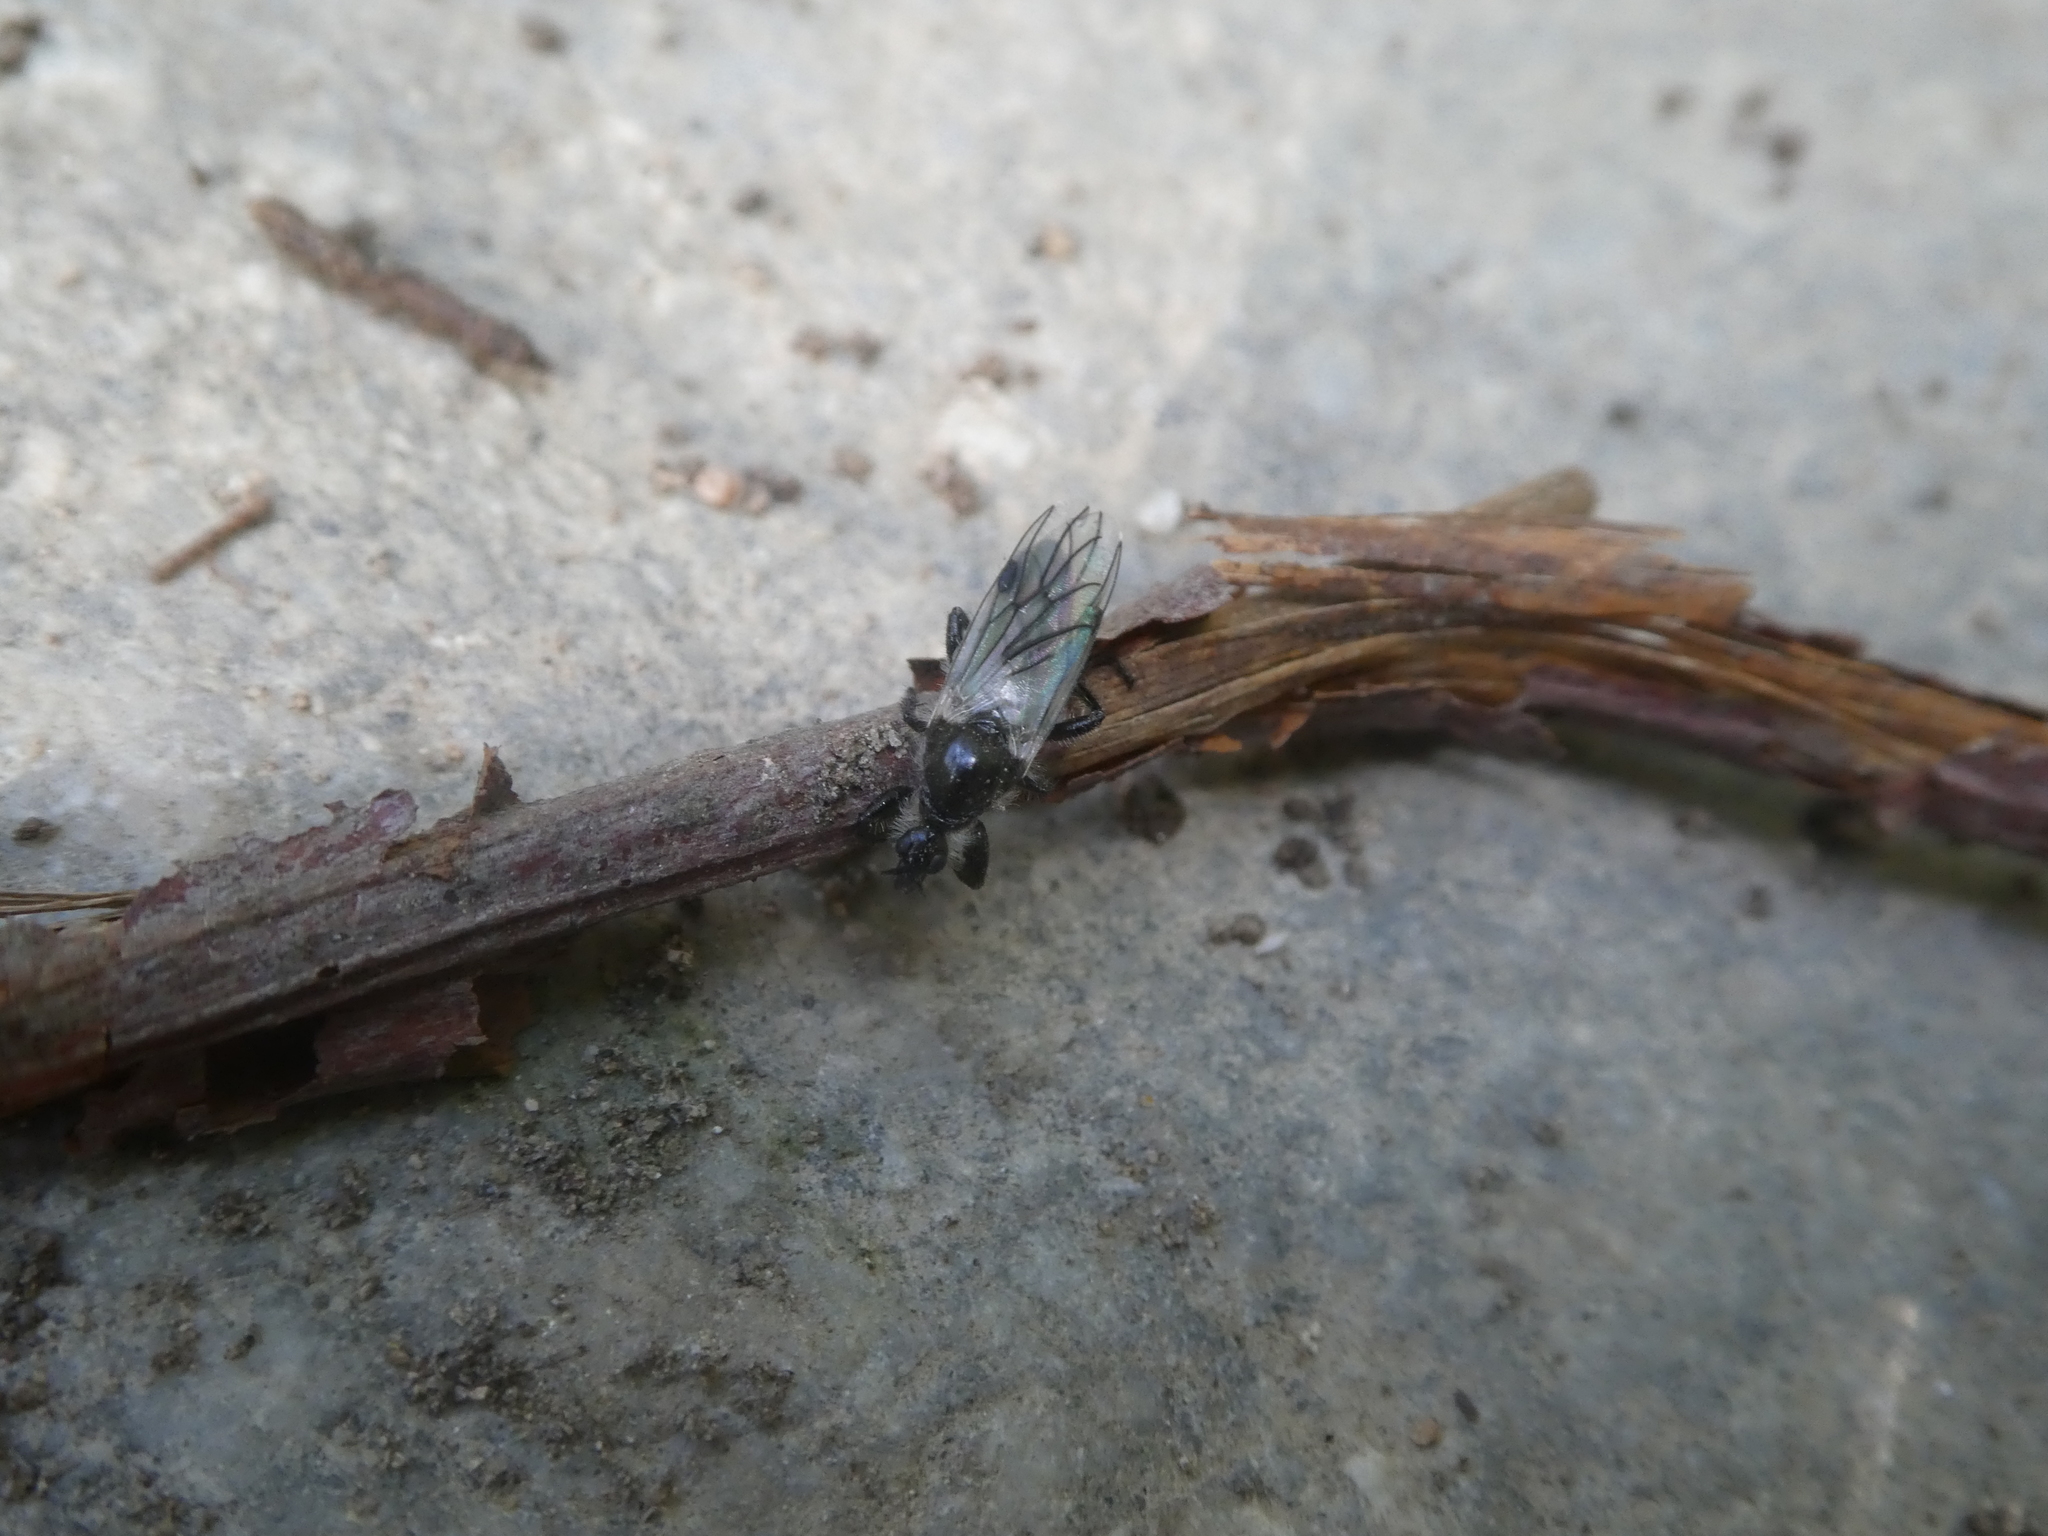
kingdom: Animalia
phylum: Arthropoda
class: Insecta
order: Diptera
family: Bibionidae
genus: Bibio
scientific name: Bibio albipennis
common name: White-winged march fly
